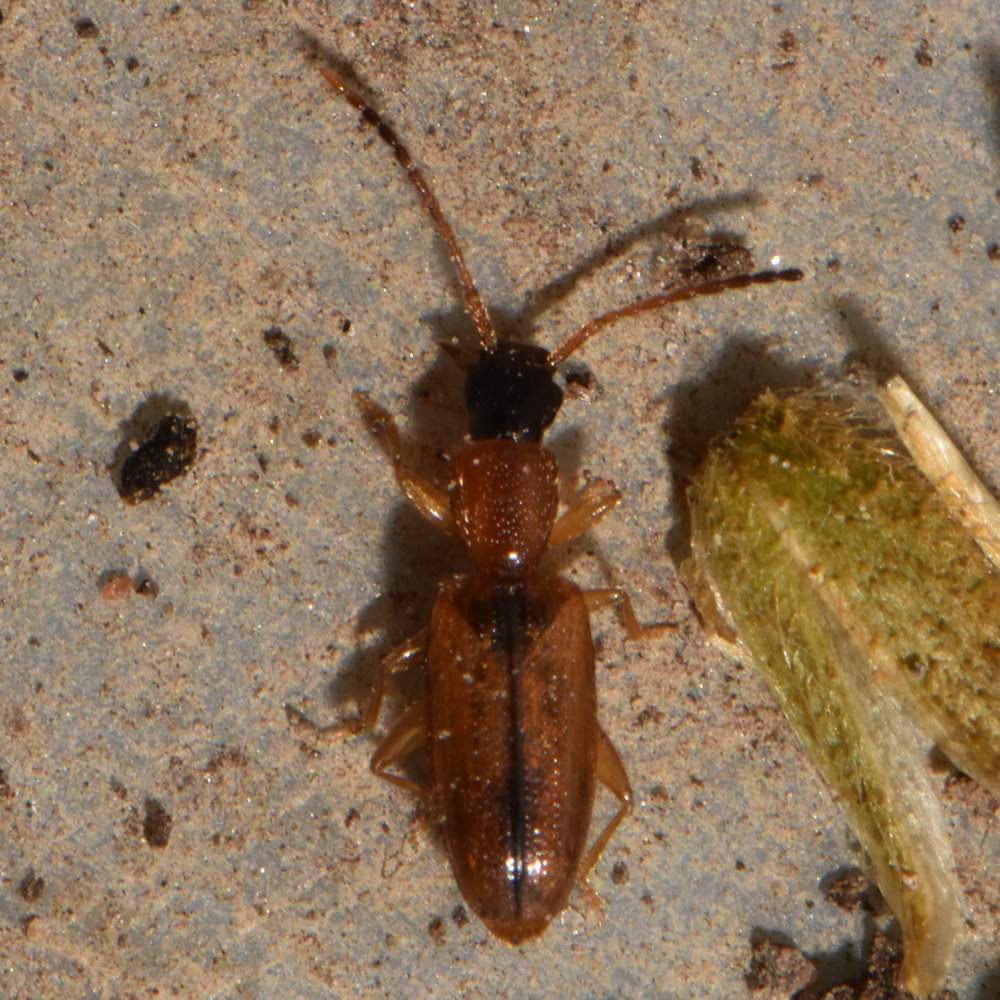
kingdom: Animalia
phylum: Arthropoda
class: Insecta
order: Coleoptera
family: Silvanidae
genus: Telephanus
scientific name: Telephanus velox
